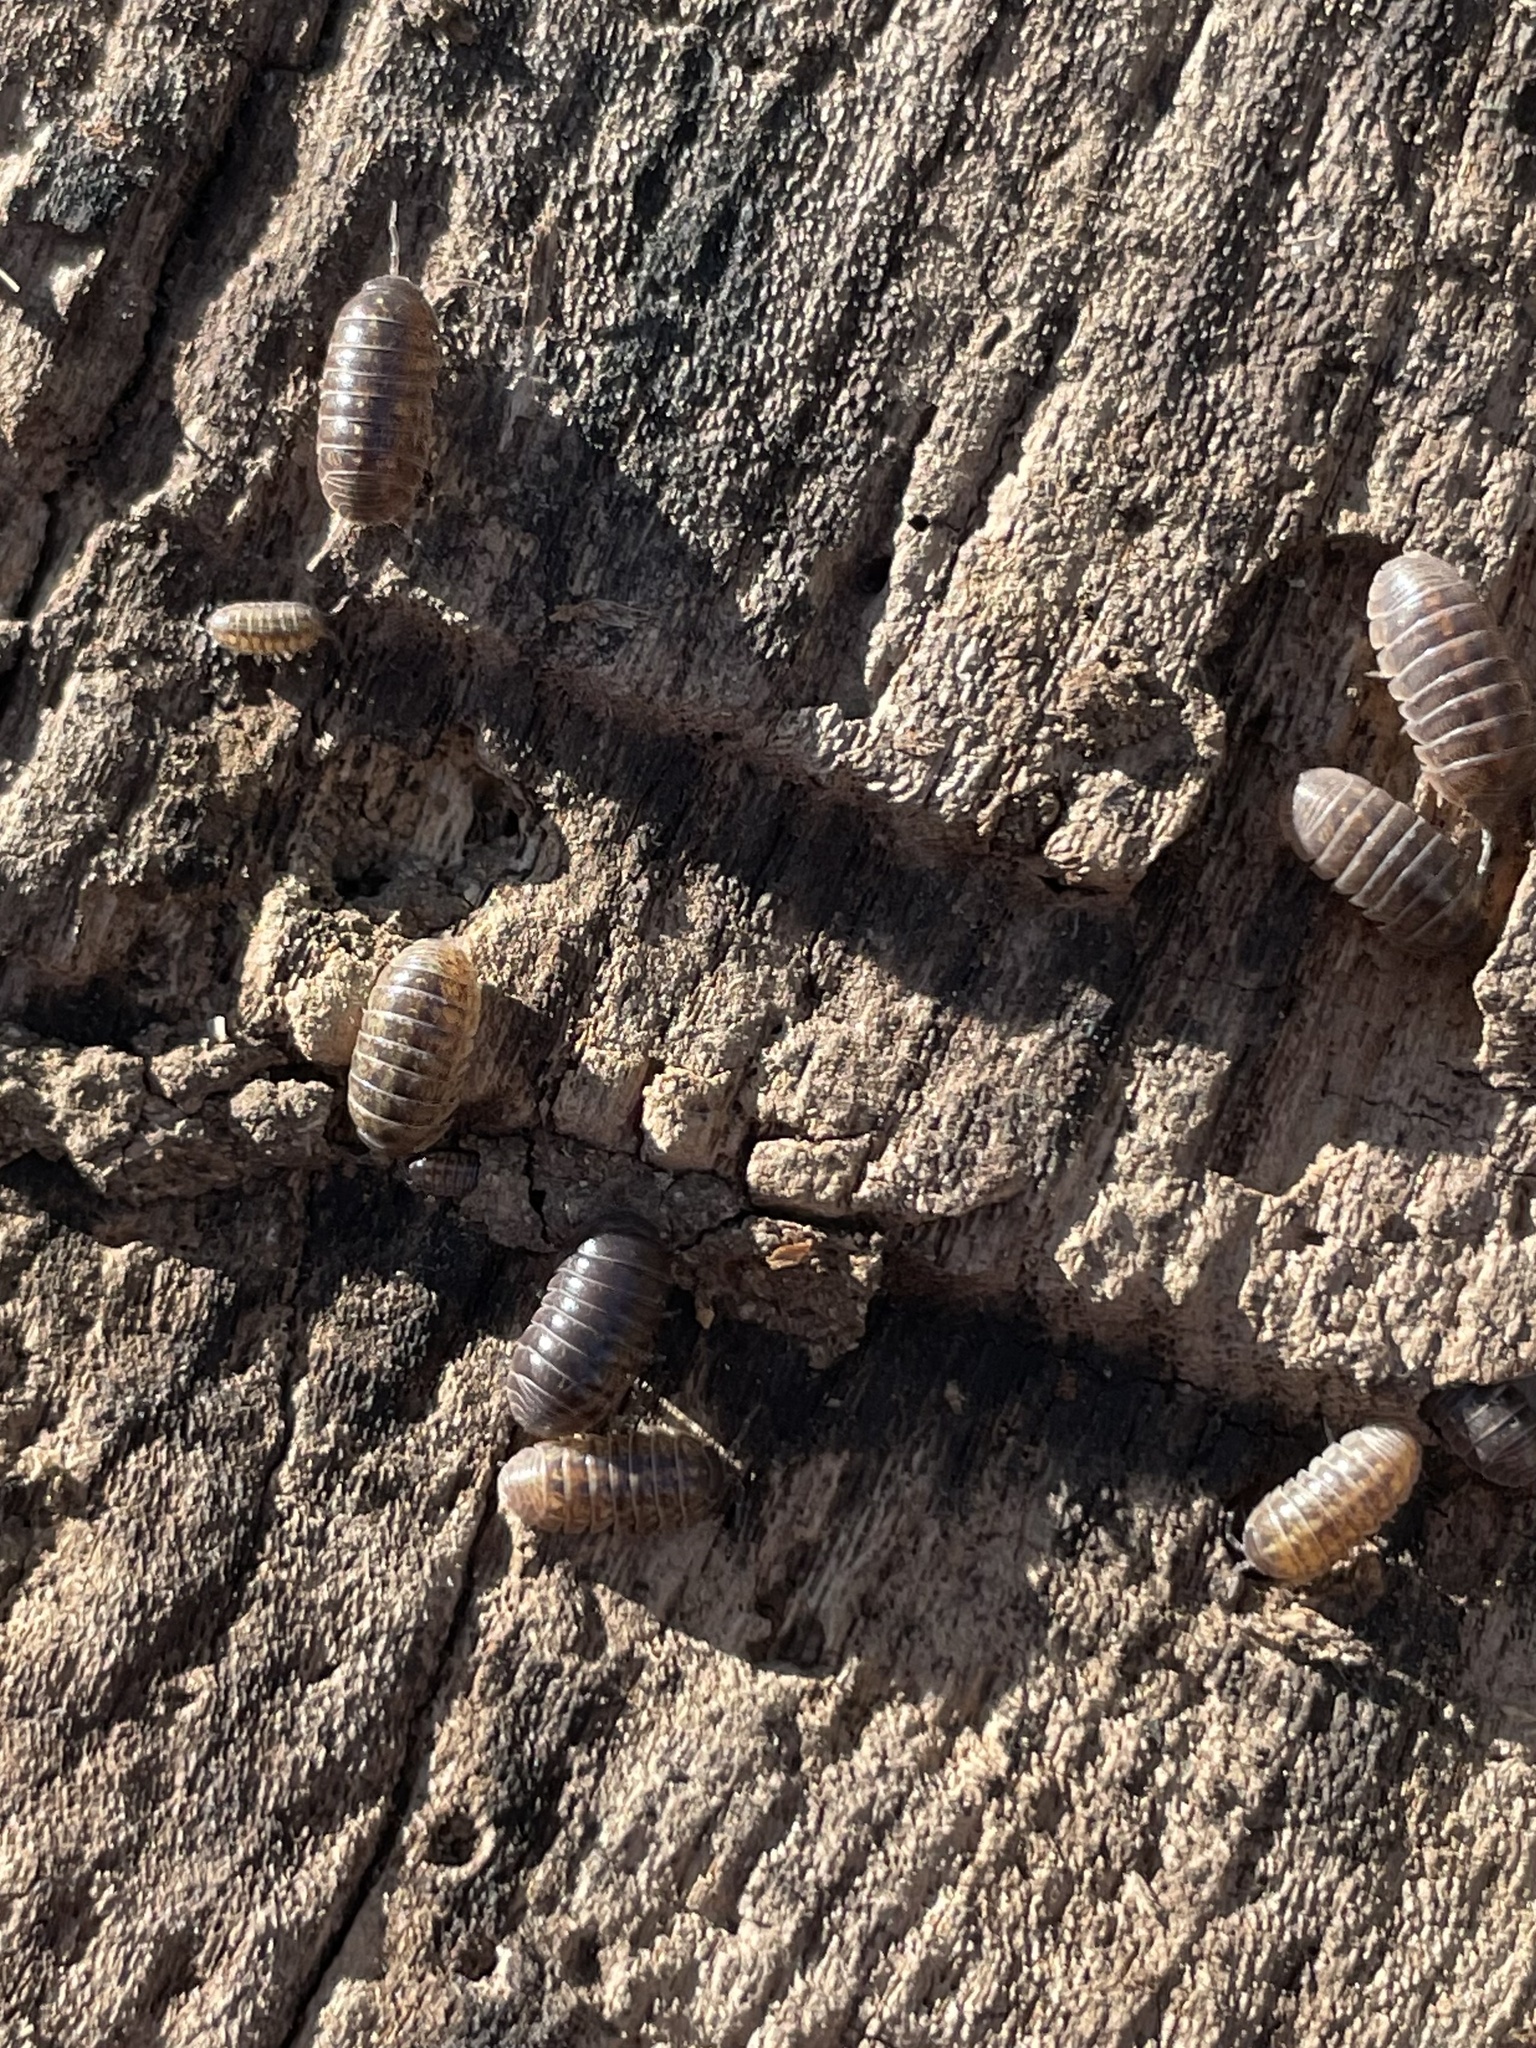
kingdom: Animalia
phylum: Arthropoda
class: Malacostraca
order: Isopoda
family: Armadillidiidae
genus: Armadillidium
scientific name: Armadillidium vulgare
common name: Common pill woodlouse
